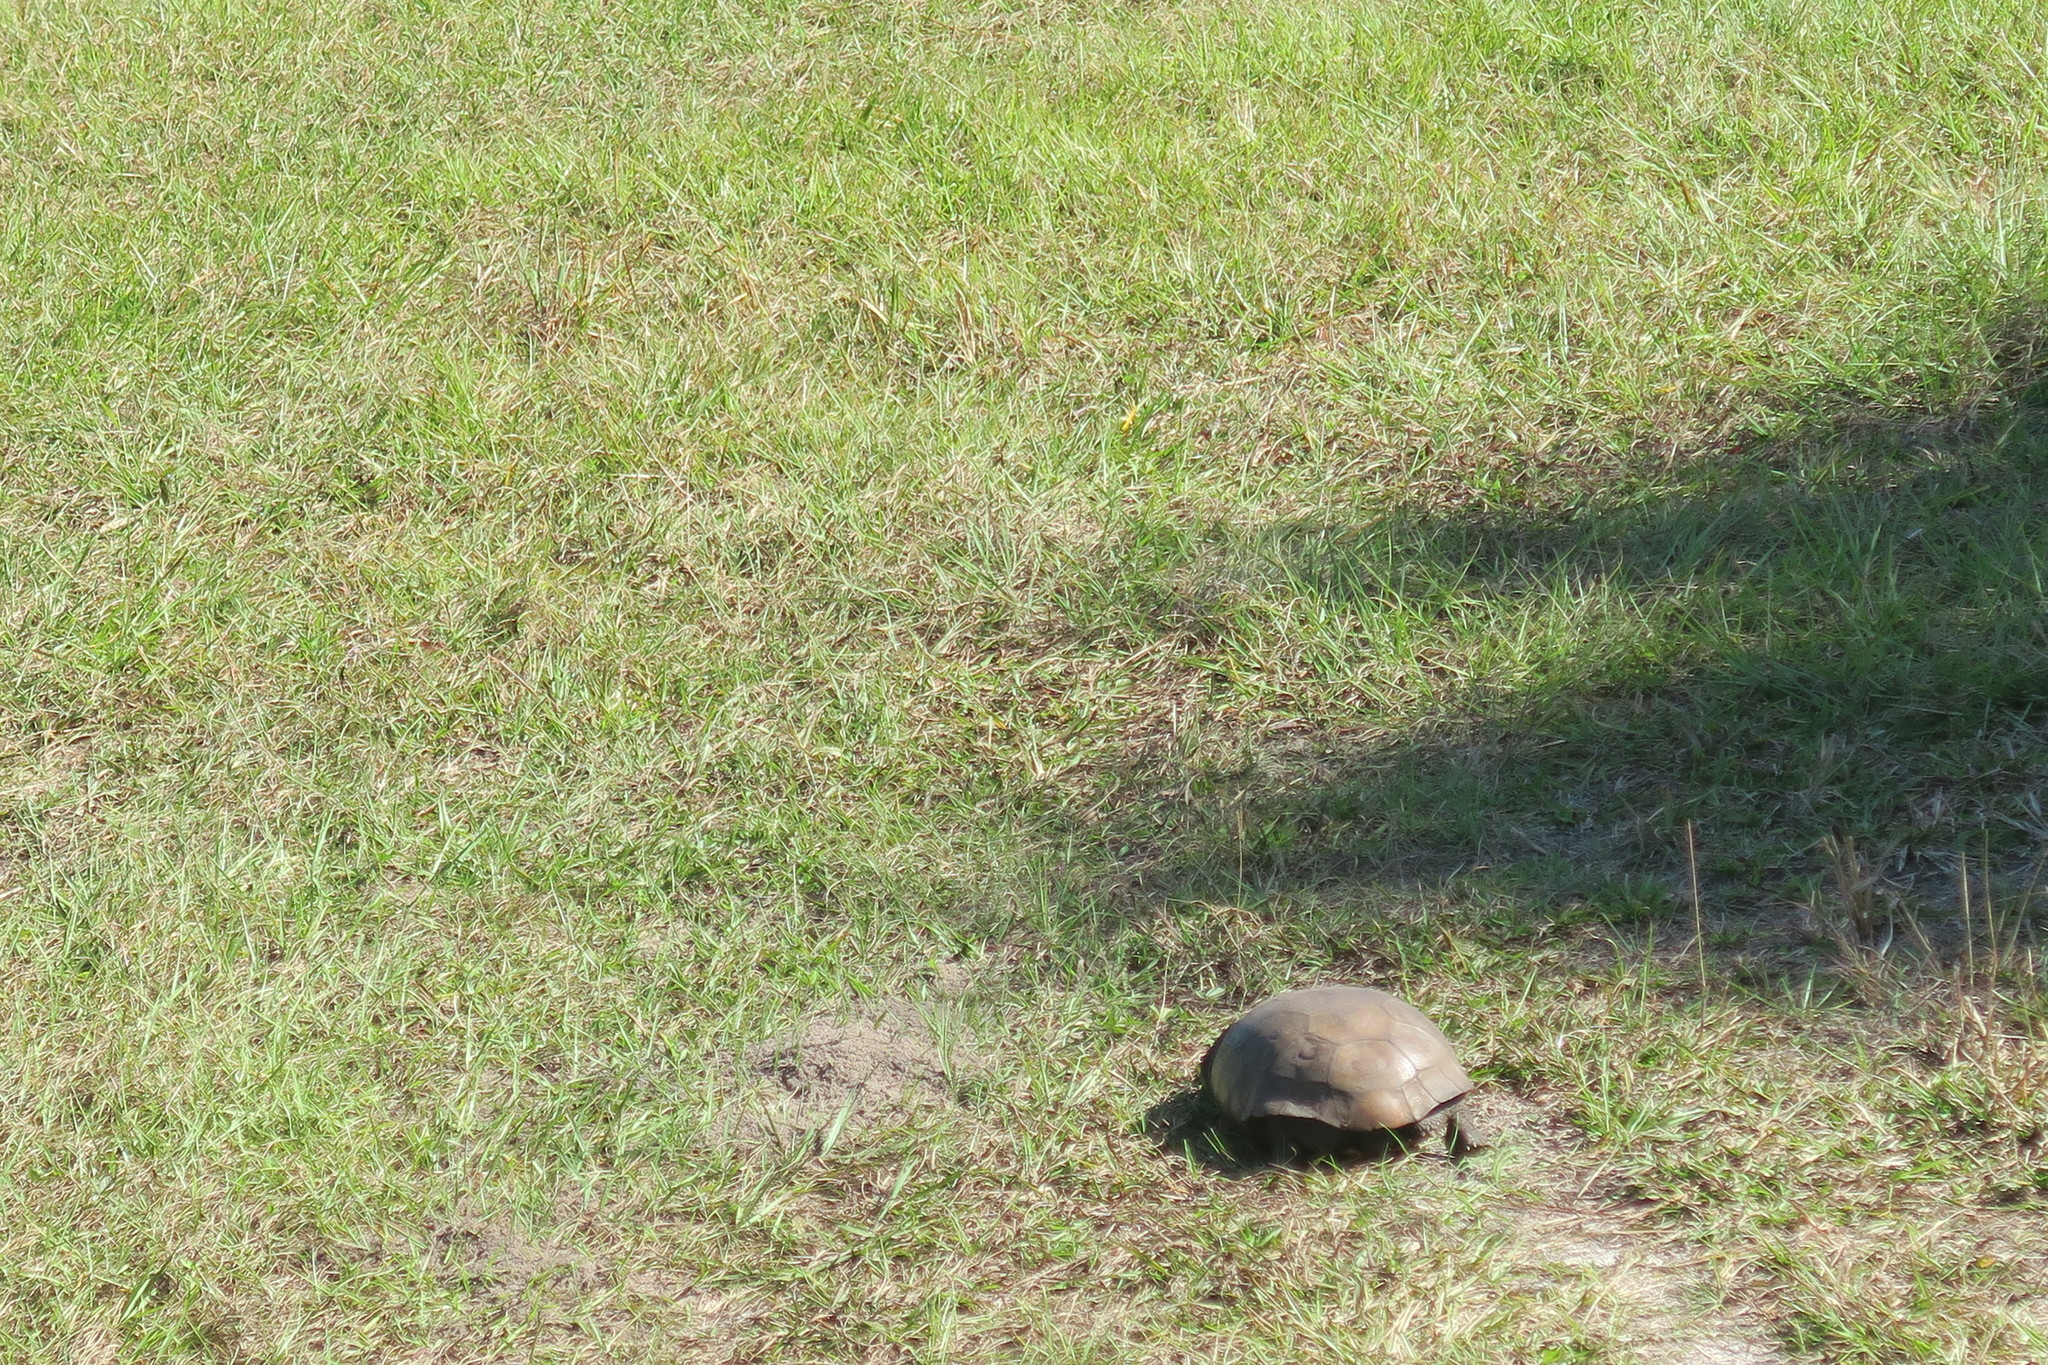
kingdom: Animalia
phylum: Chordata
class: Testudines
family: Testudinidae
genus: Gopherus
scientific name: Gopherus polyphemus
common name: Florida gopher tortoise
